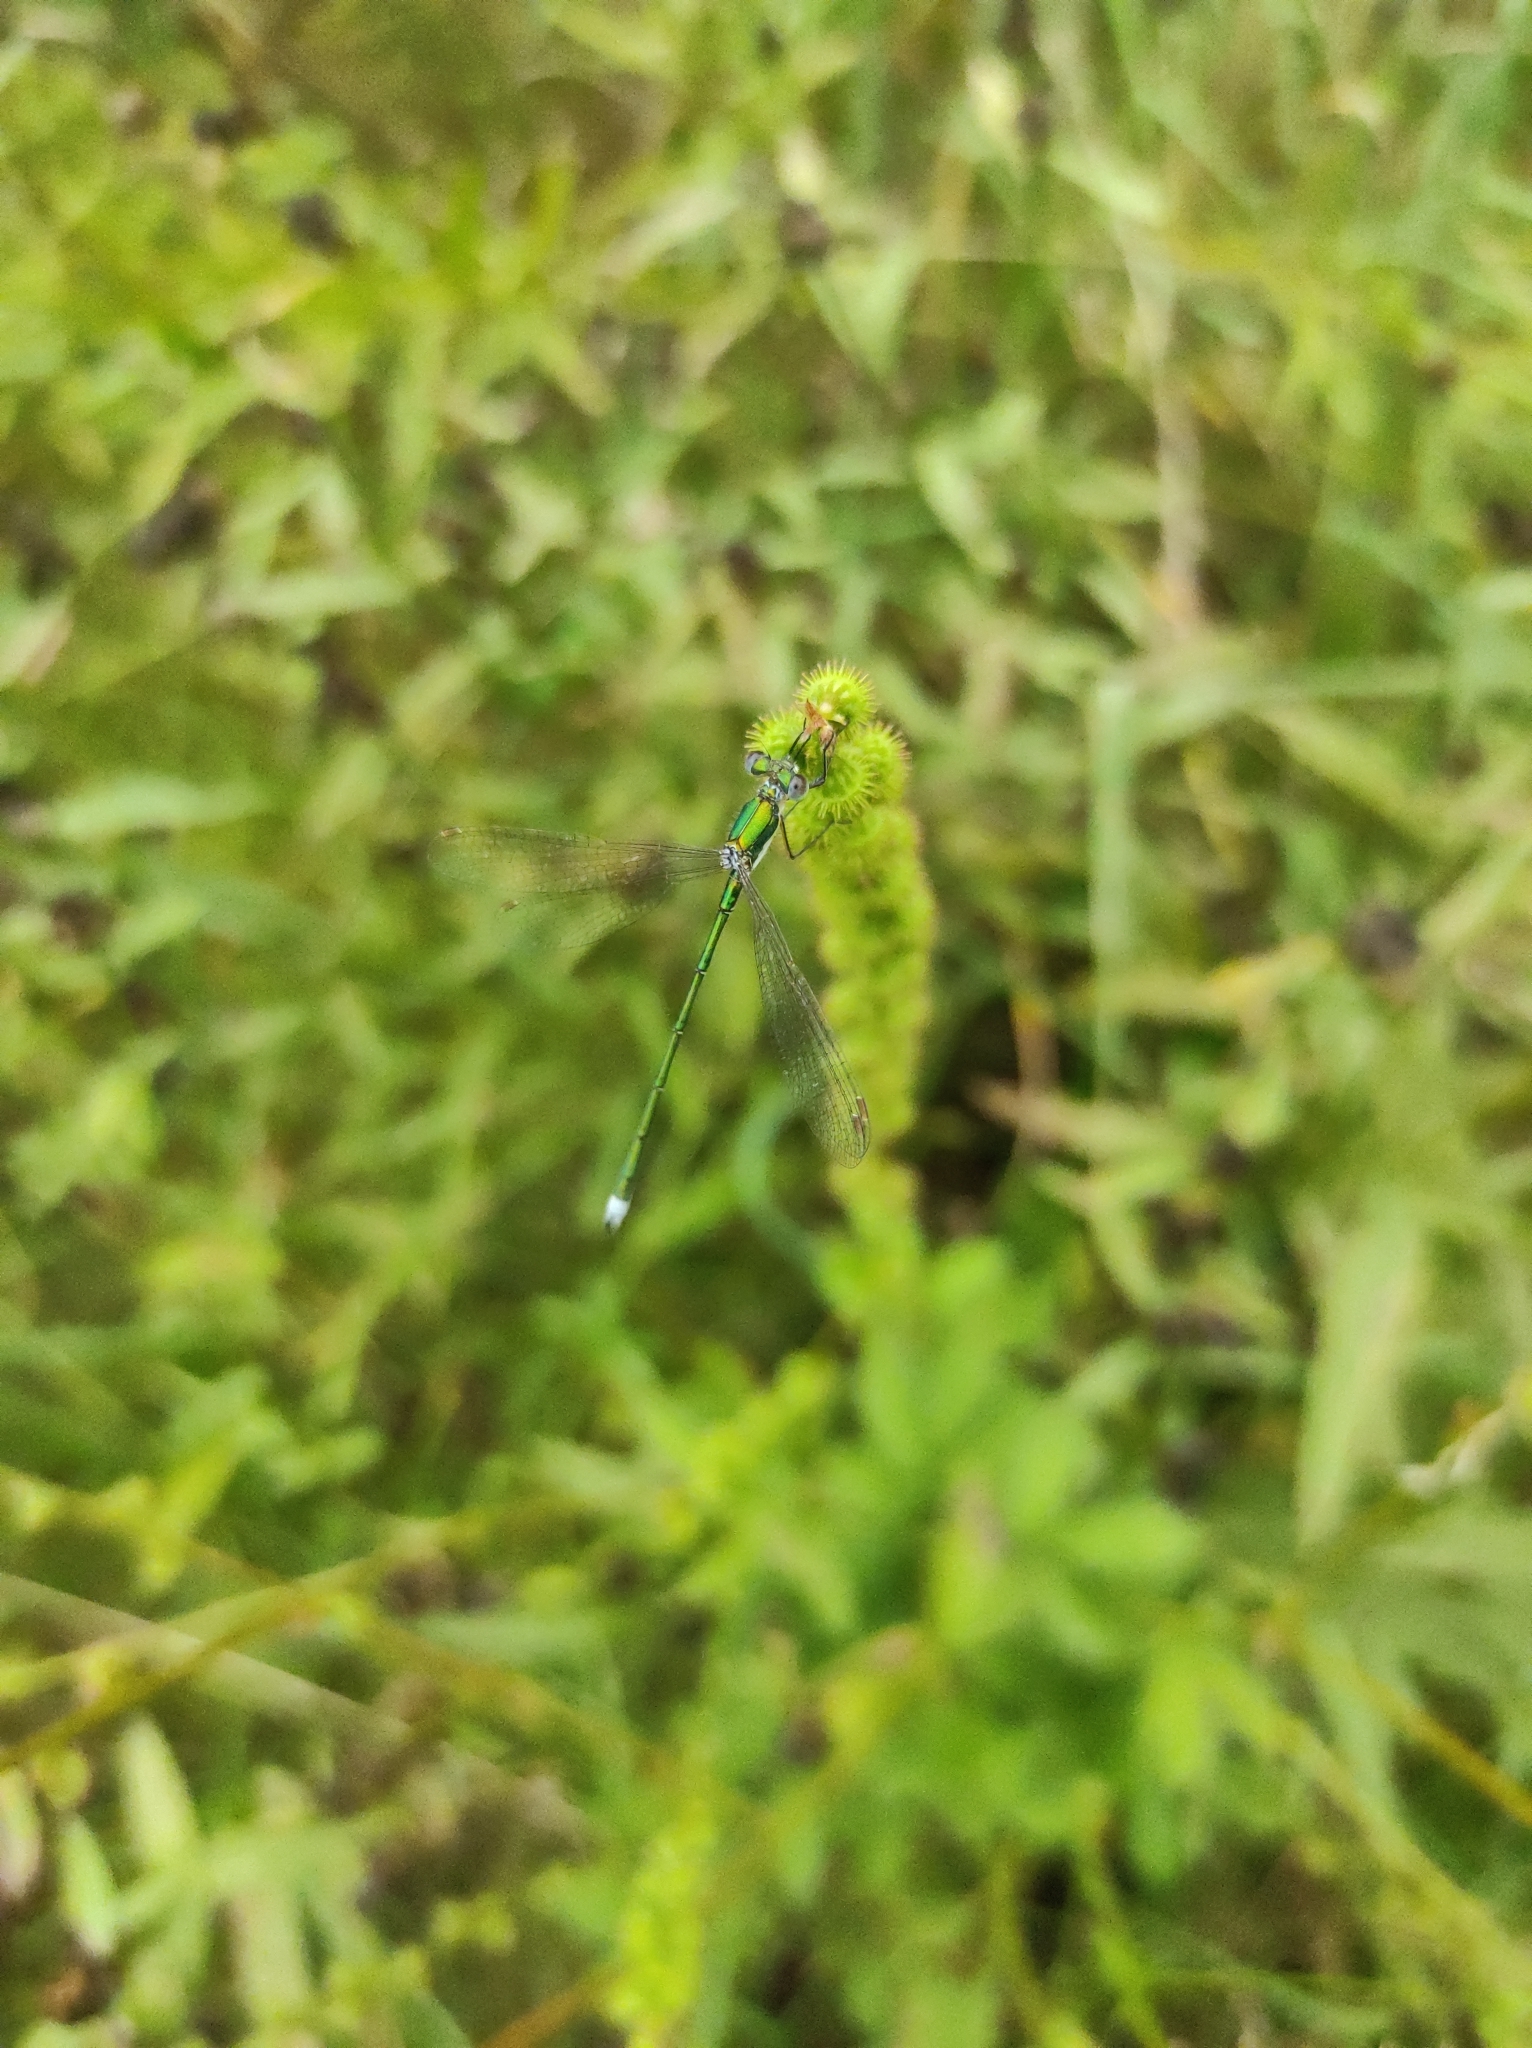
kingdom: Animalia
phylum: Arthropoda
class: Insecta
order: Odonata
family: Lestidae
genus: Lestes
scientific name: Lestes virens
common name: Small emerald spreadwing
